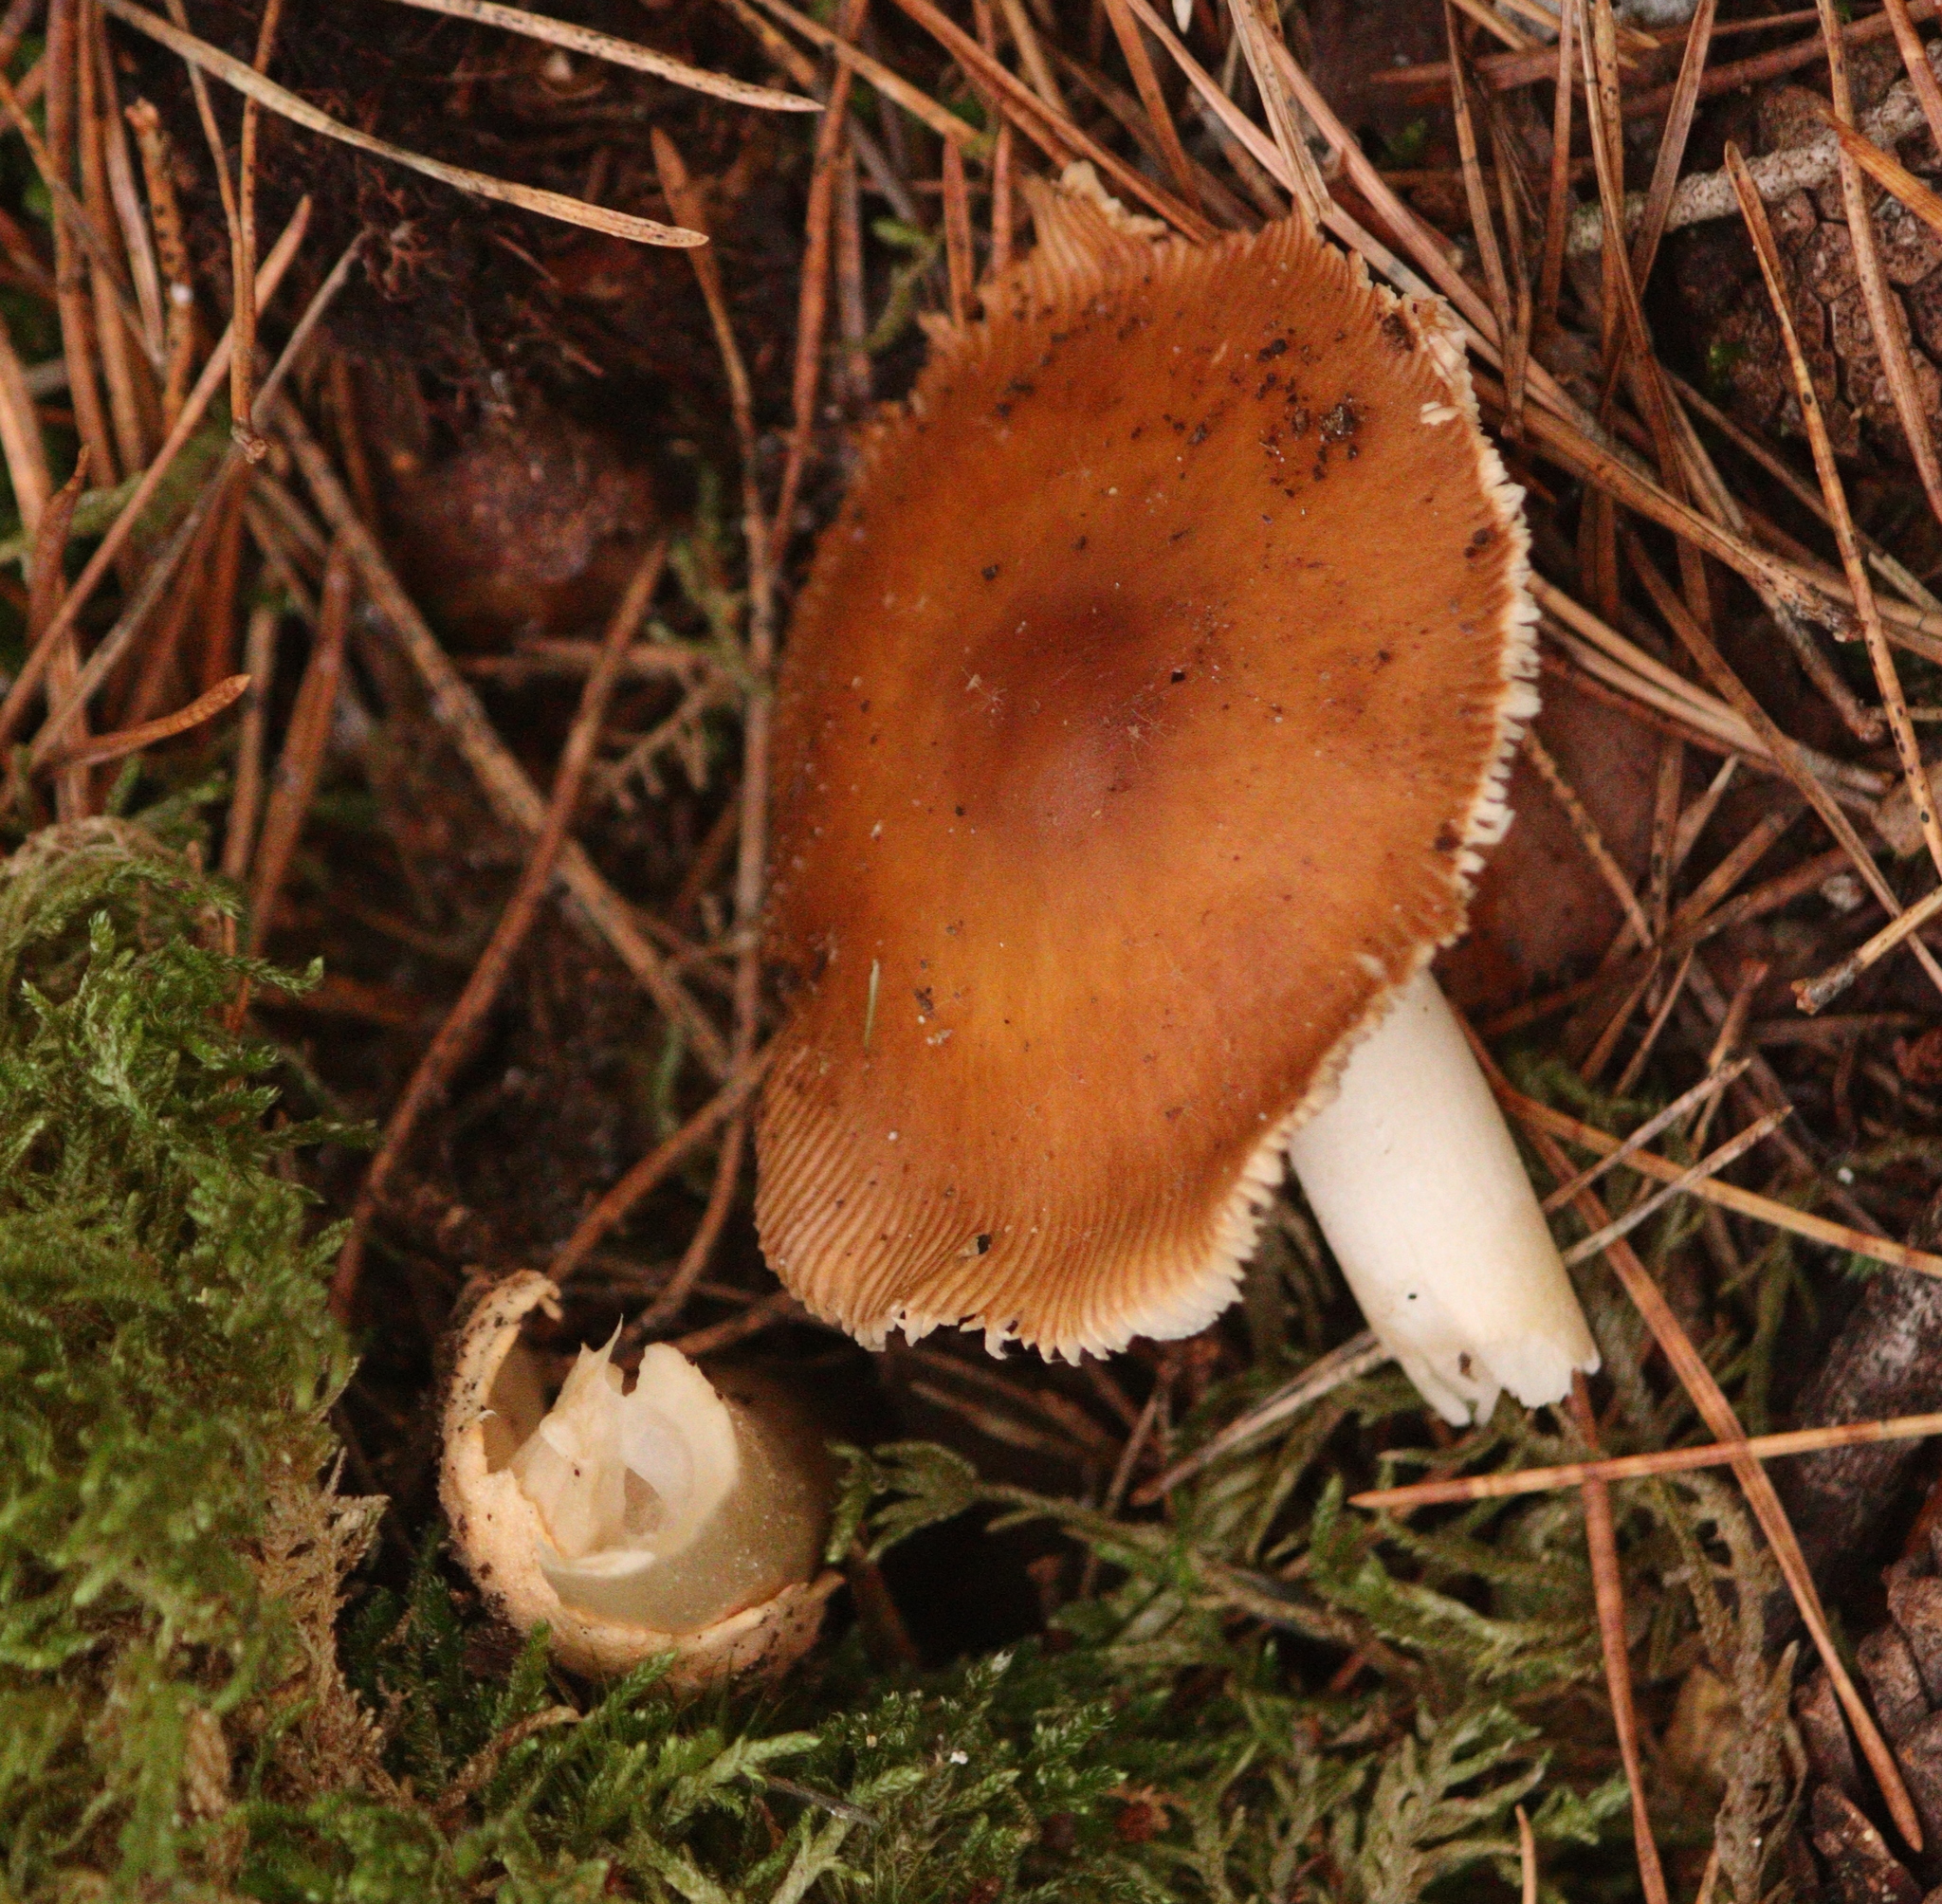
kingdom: Fungi
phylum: Basidiomycota
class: Agaricomycetes
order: Agaricales
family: Amanitaceae
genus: Amanita
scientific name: Amanita fulva
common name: Tawny grisette
